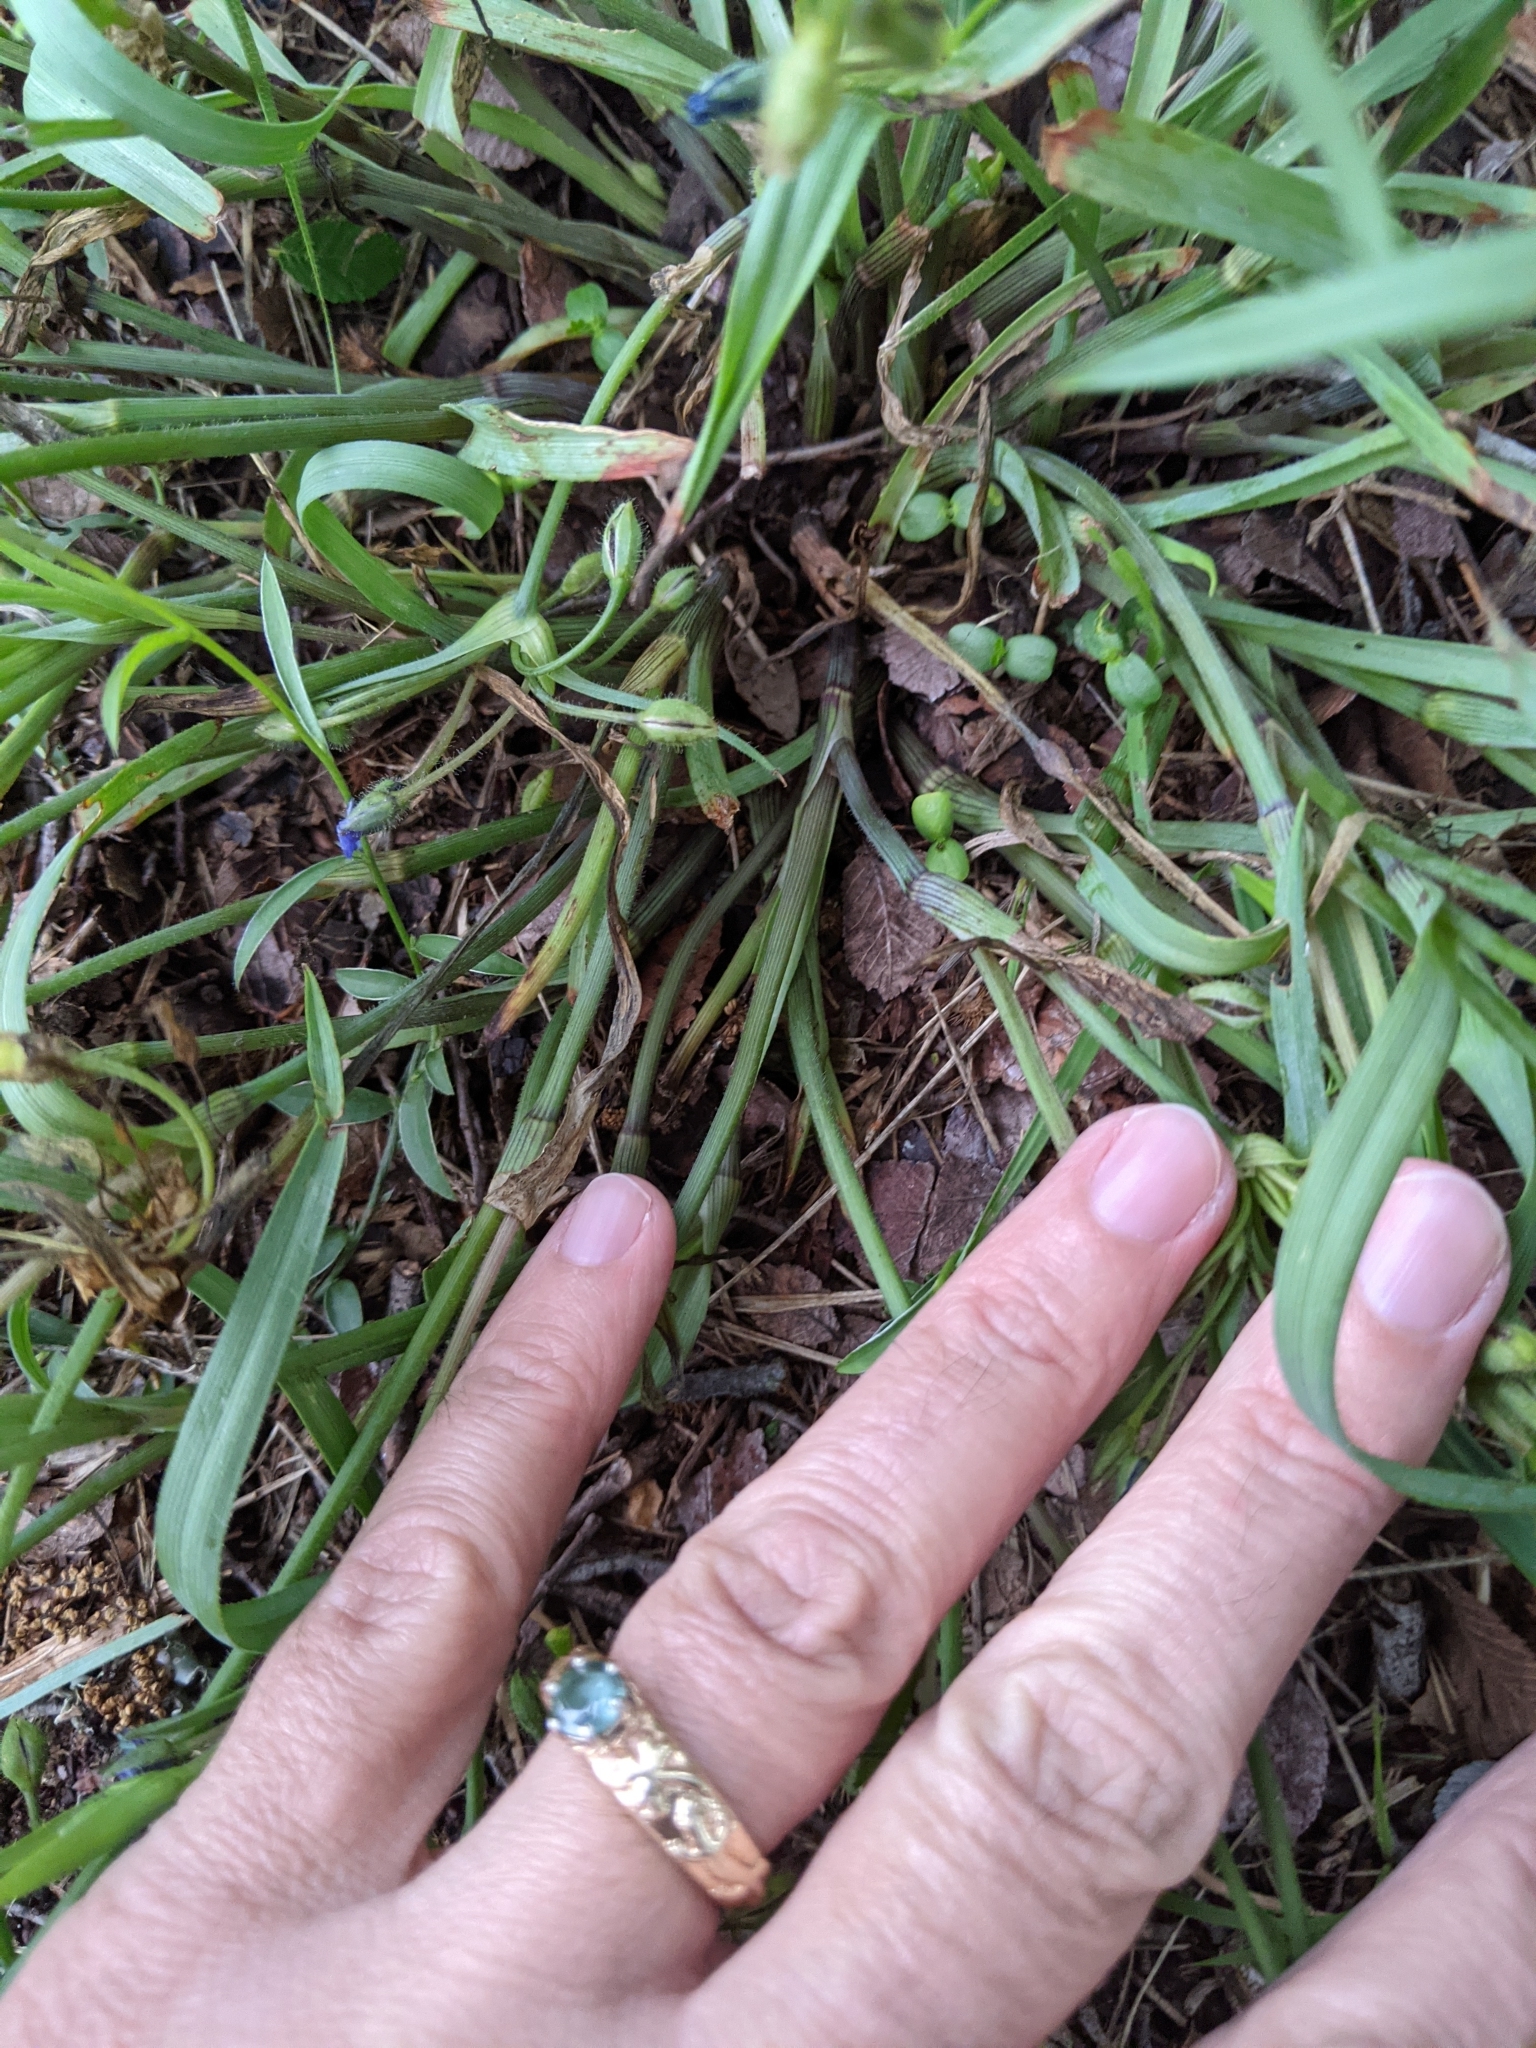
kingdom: Plantae
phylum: Tracheophyta
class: Liliopsida
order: Commelinales
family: Commelinaceae
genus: Tradescantia
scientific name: Tradescantia pedicellata
